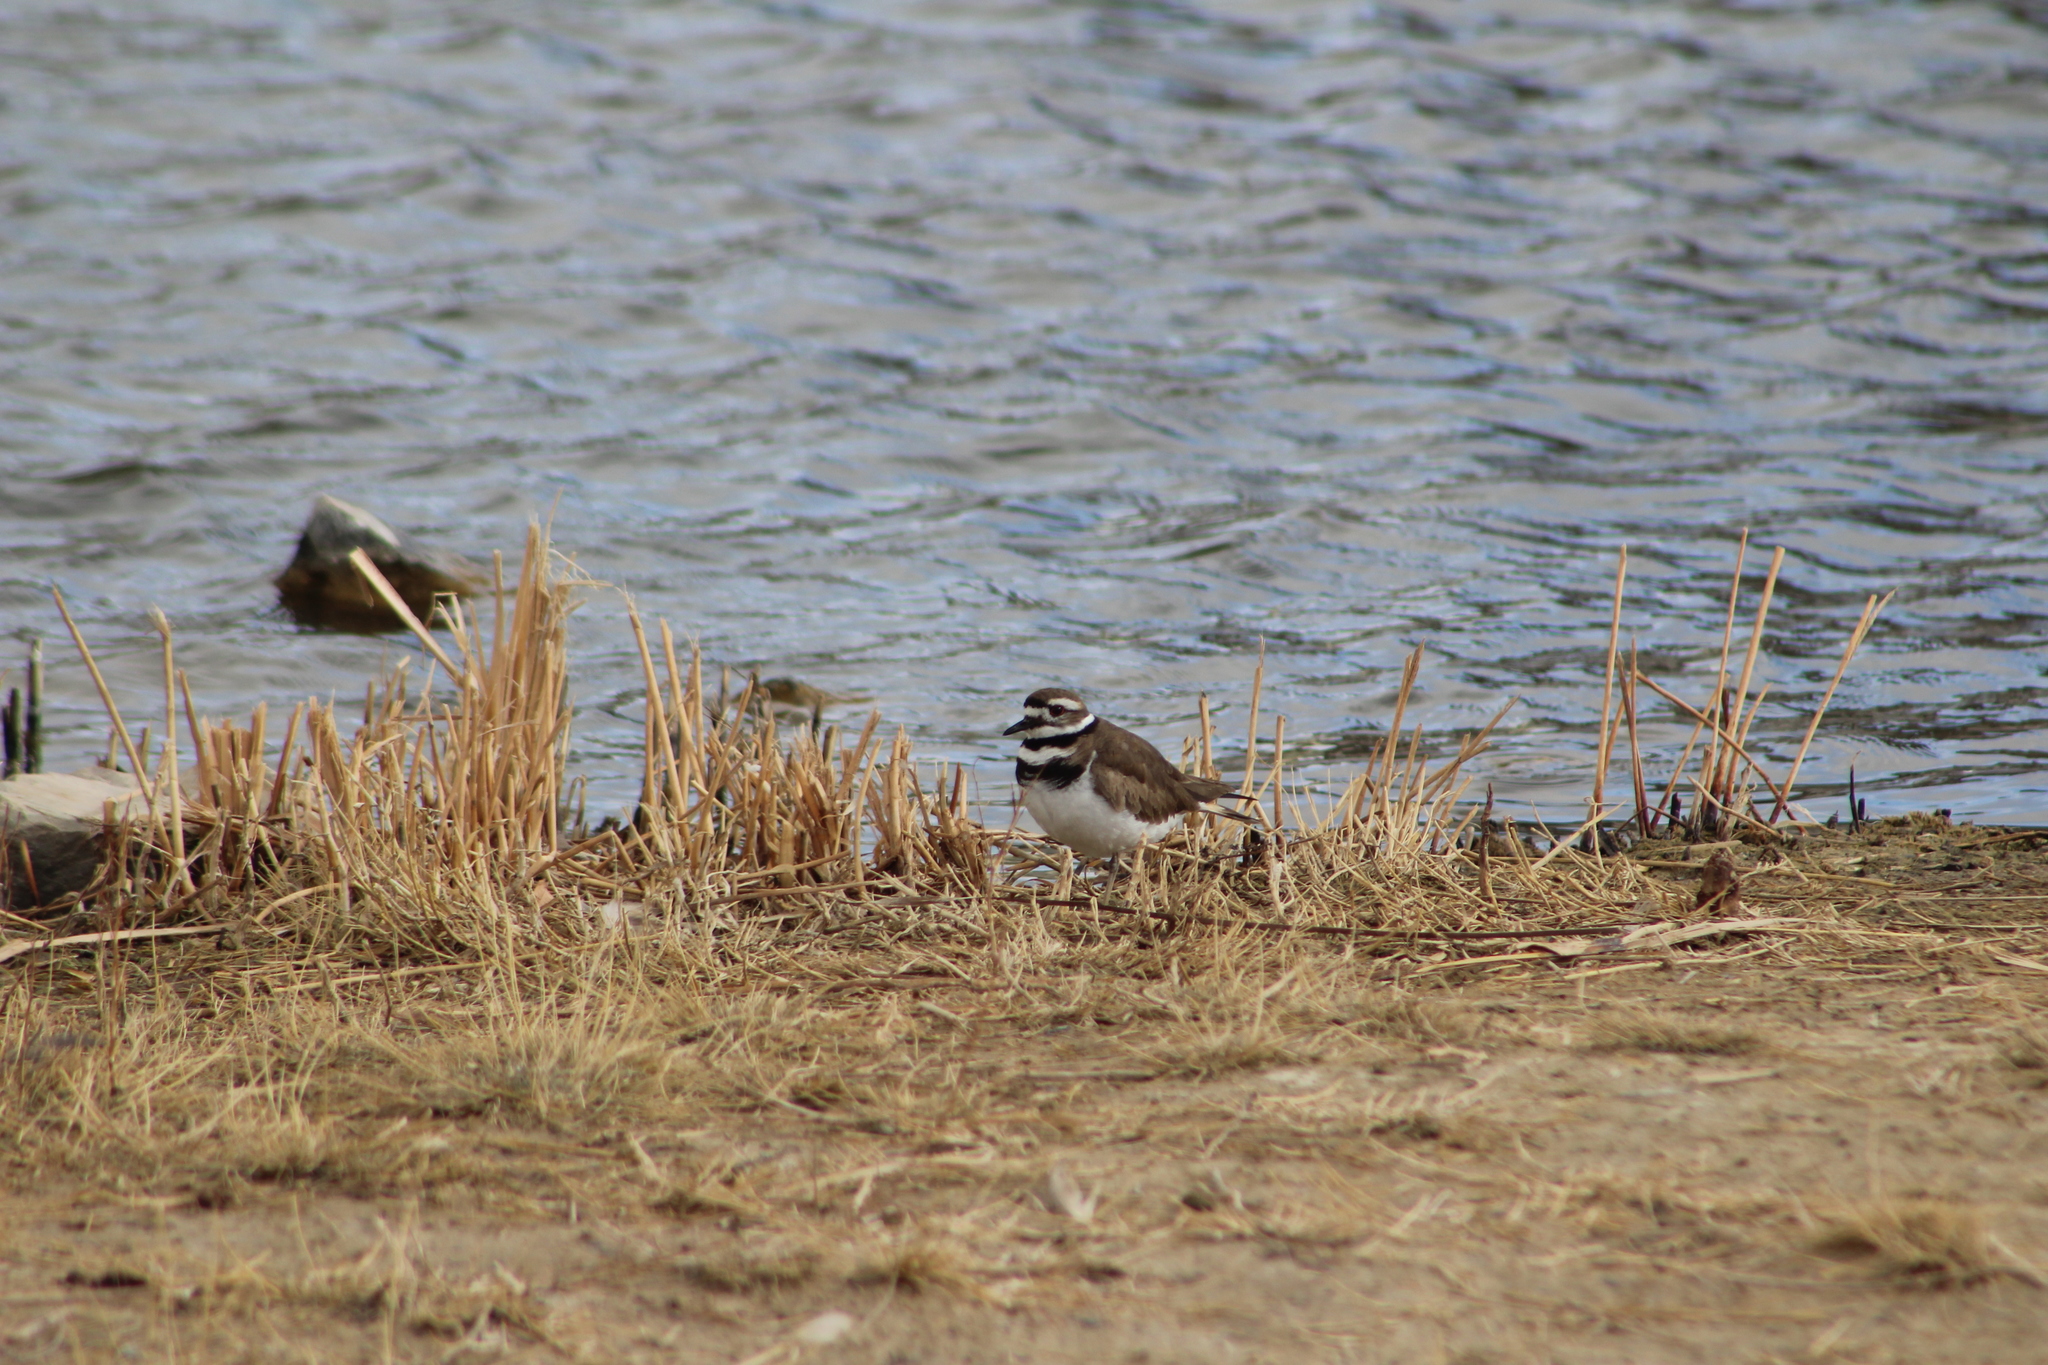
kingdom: Animalia
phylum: Chordata
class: Aves
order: Charadriiformes
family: Charadriidae
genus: Charadrius
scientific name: Charadrius vociferus
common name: Killdeer
